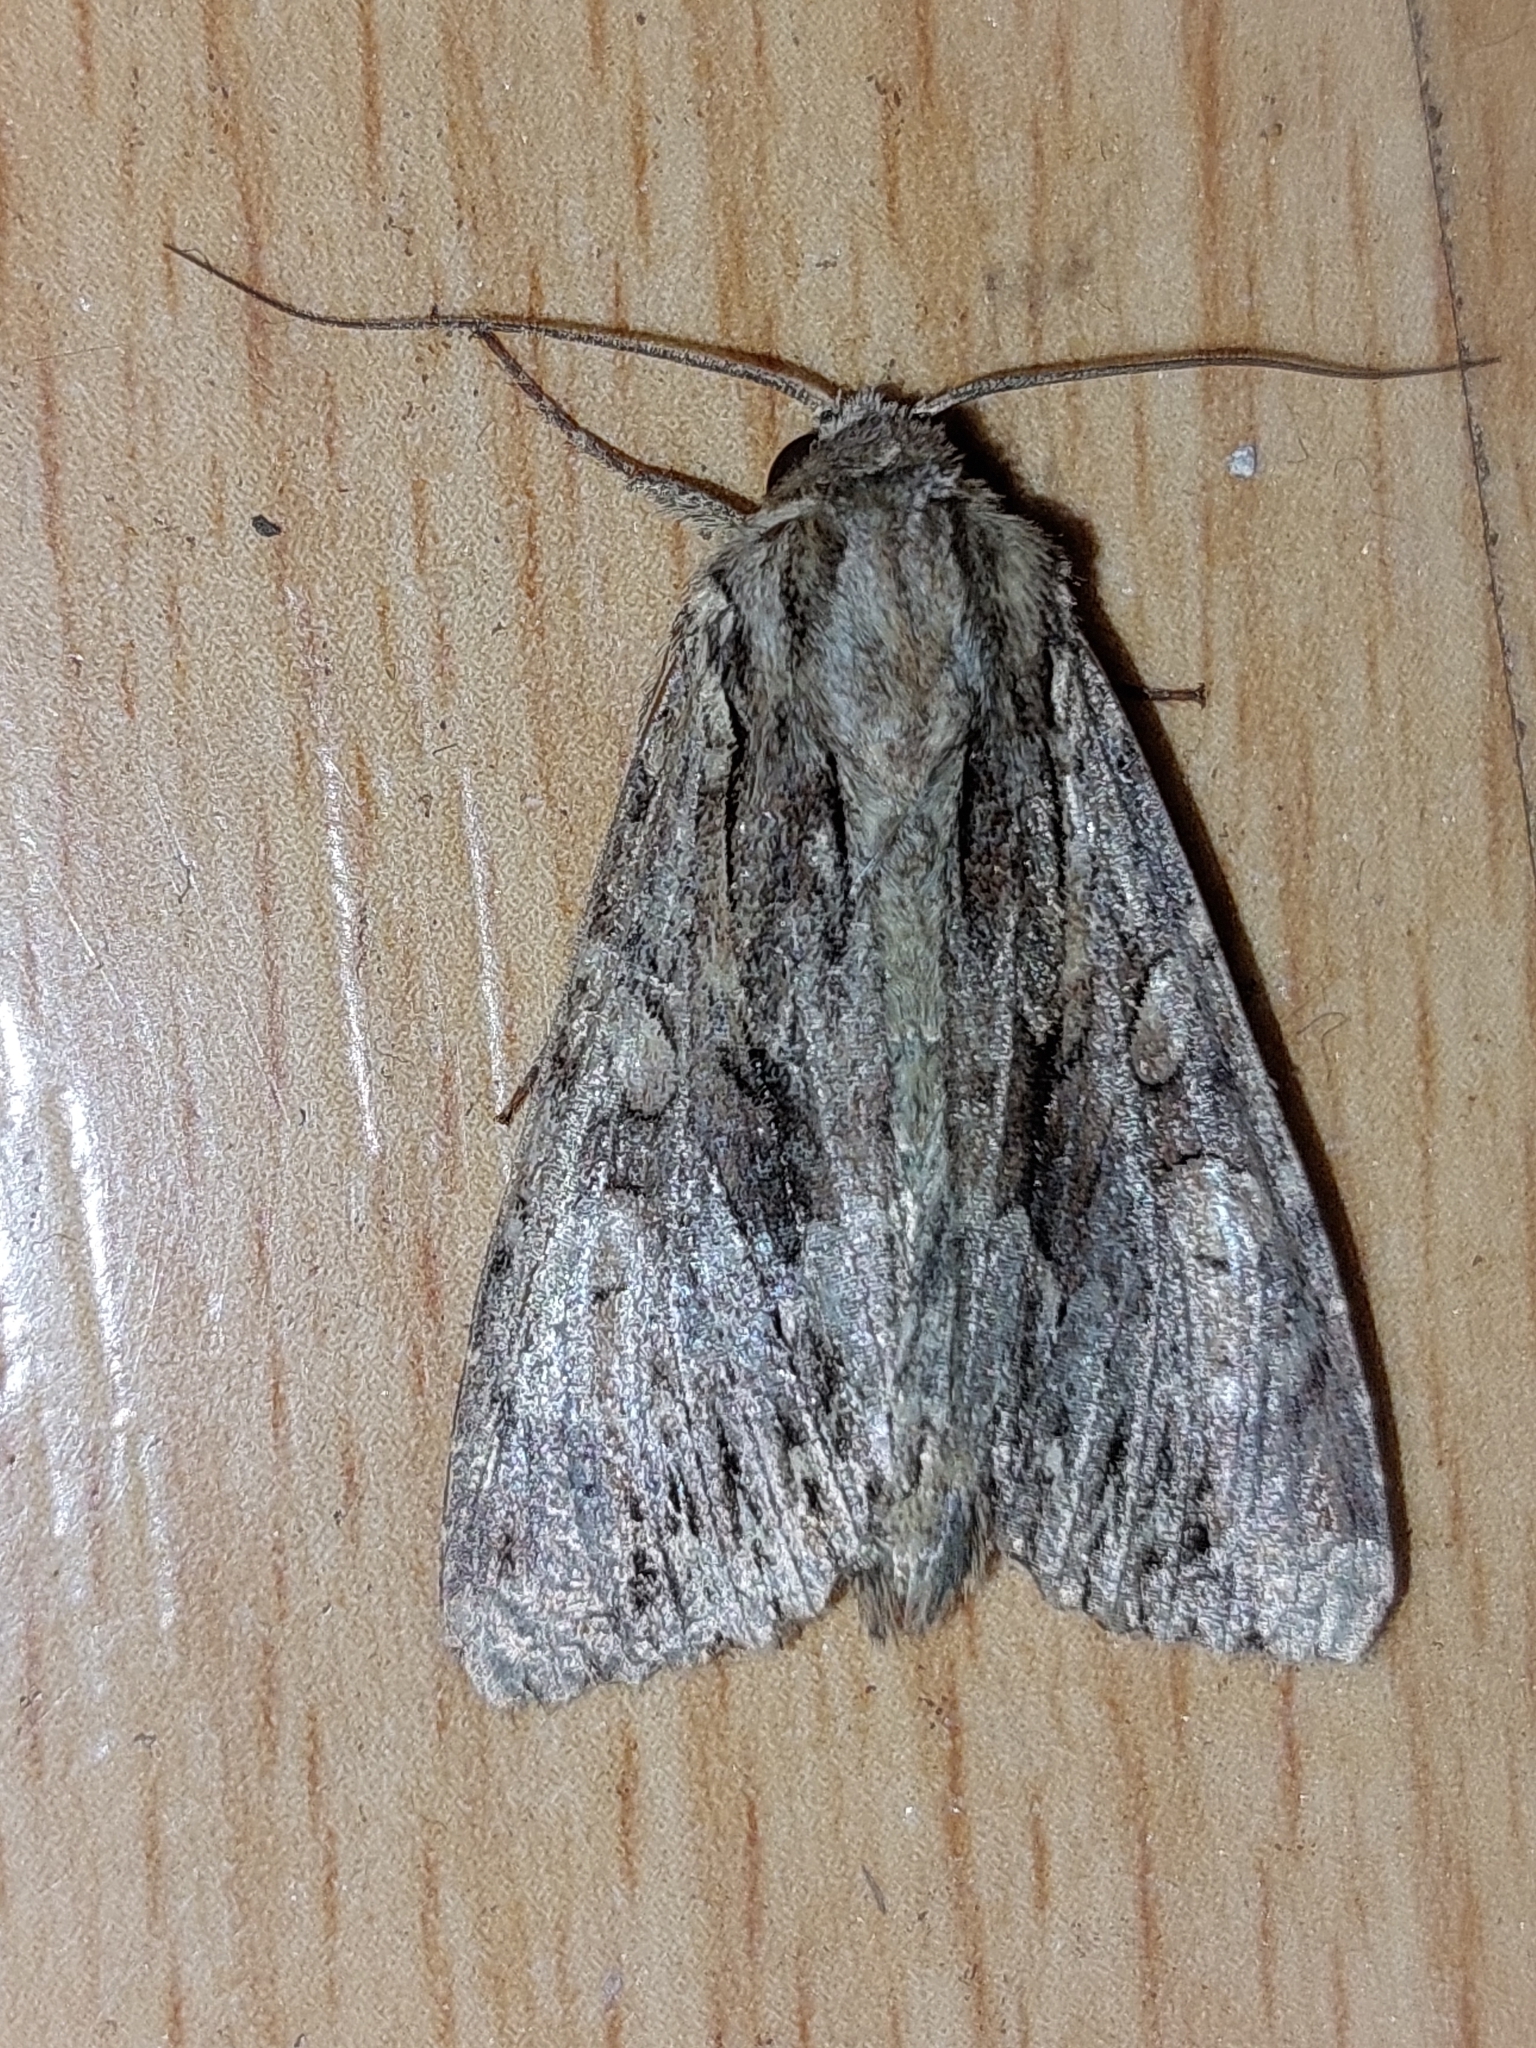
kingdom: Animalia
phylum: Arthropoda
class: Insecta
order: Lepidoptera
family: Noctuidae
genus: Apamea
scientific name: Apamea monoglypha
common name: Dark arches
